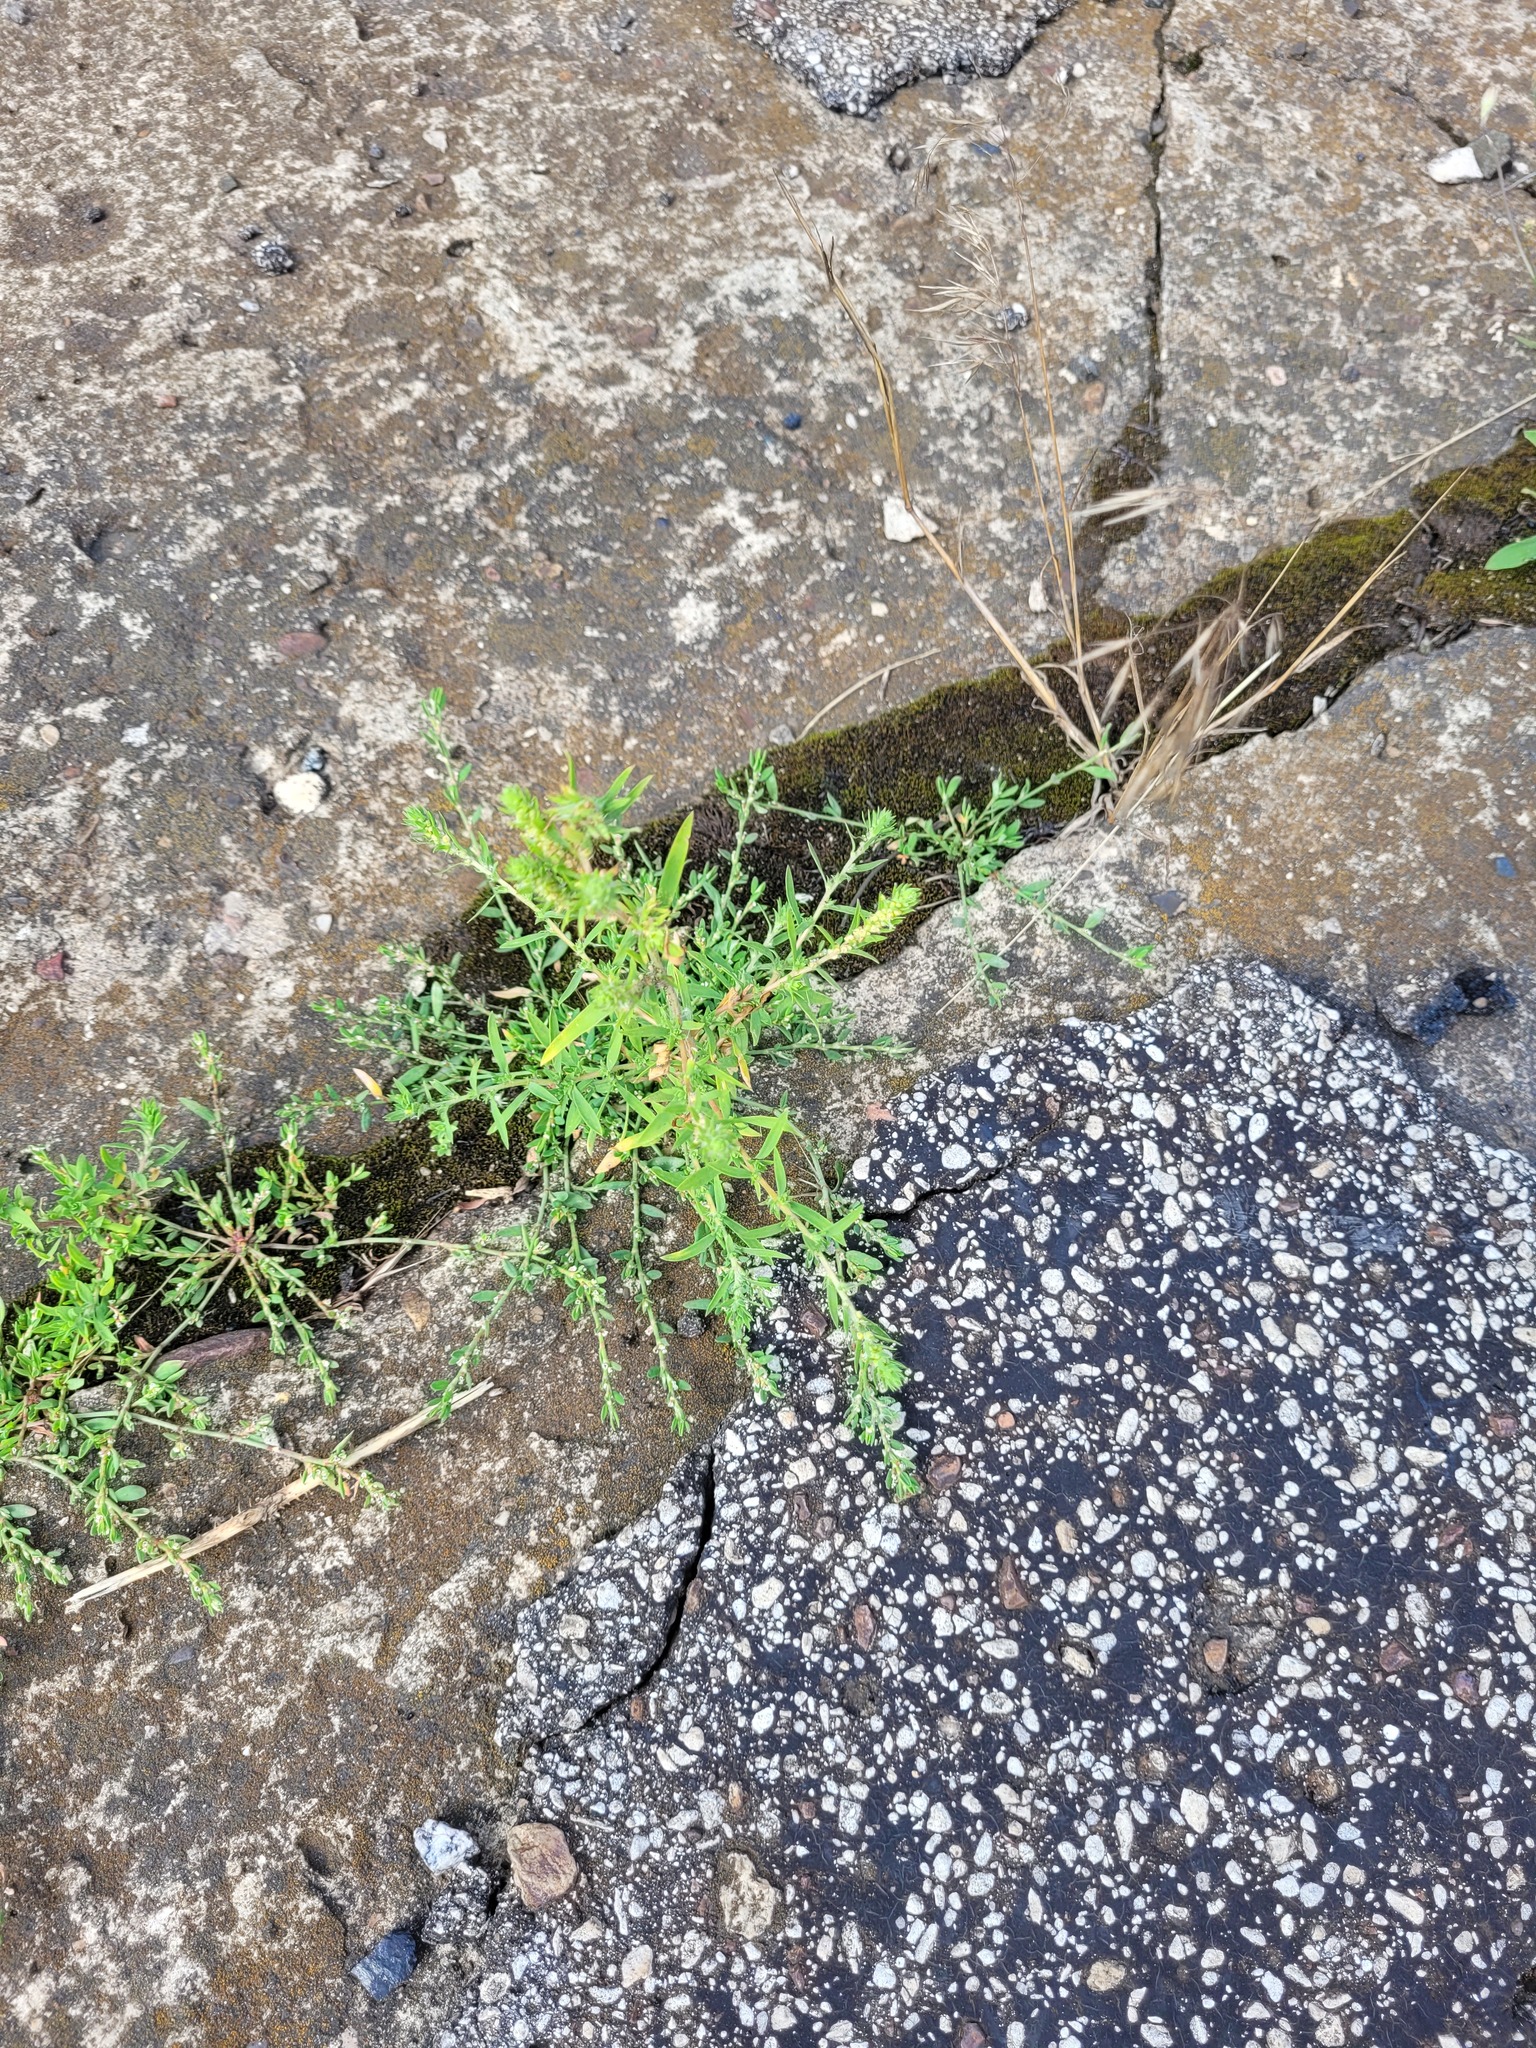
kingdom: Plantae
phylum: Tracheophyta
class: Magnoliopsida
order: Caryophyllales
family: Amaranthaceae
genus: Bassia
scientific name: Bassia scoparia
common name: Belvedere
